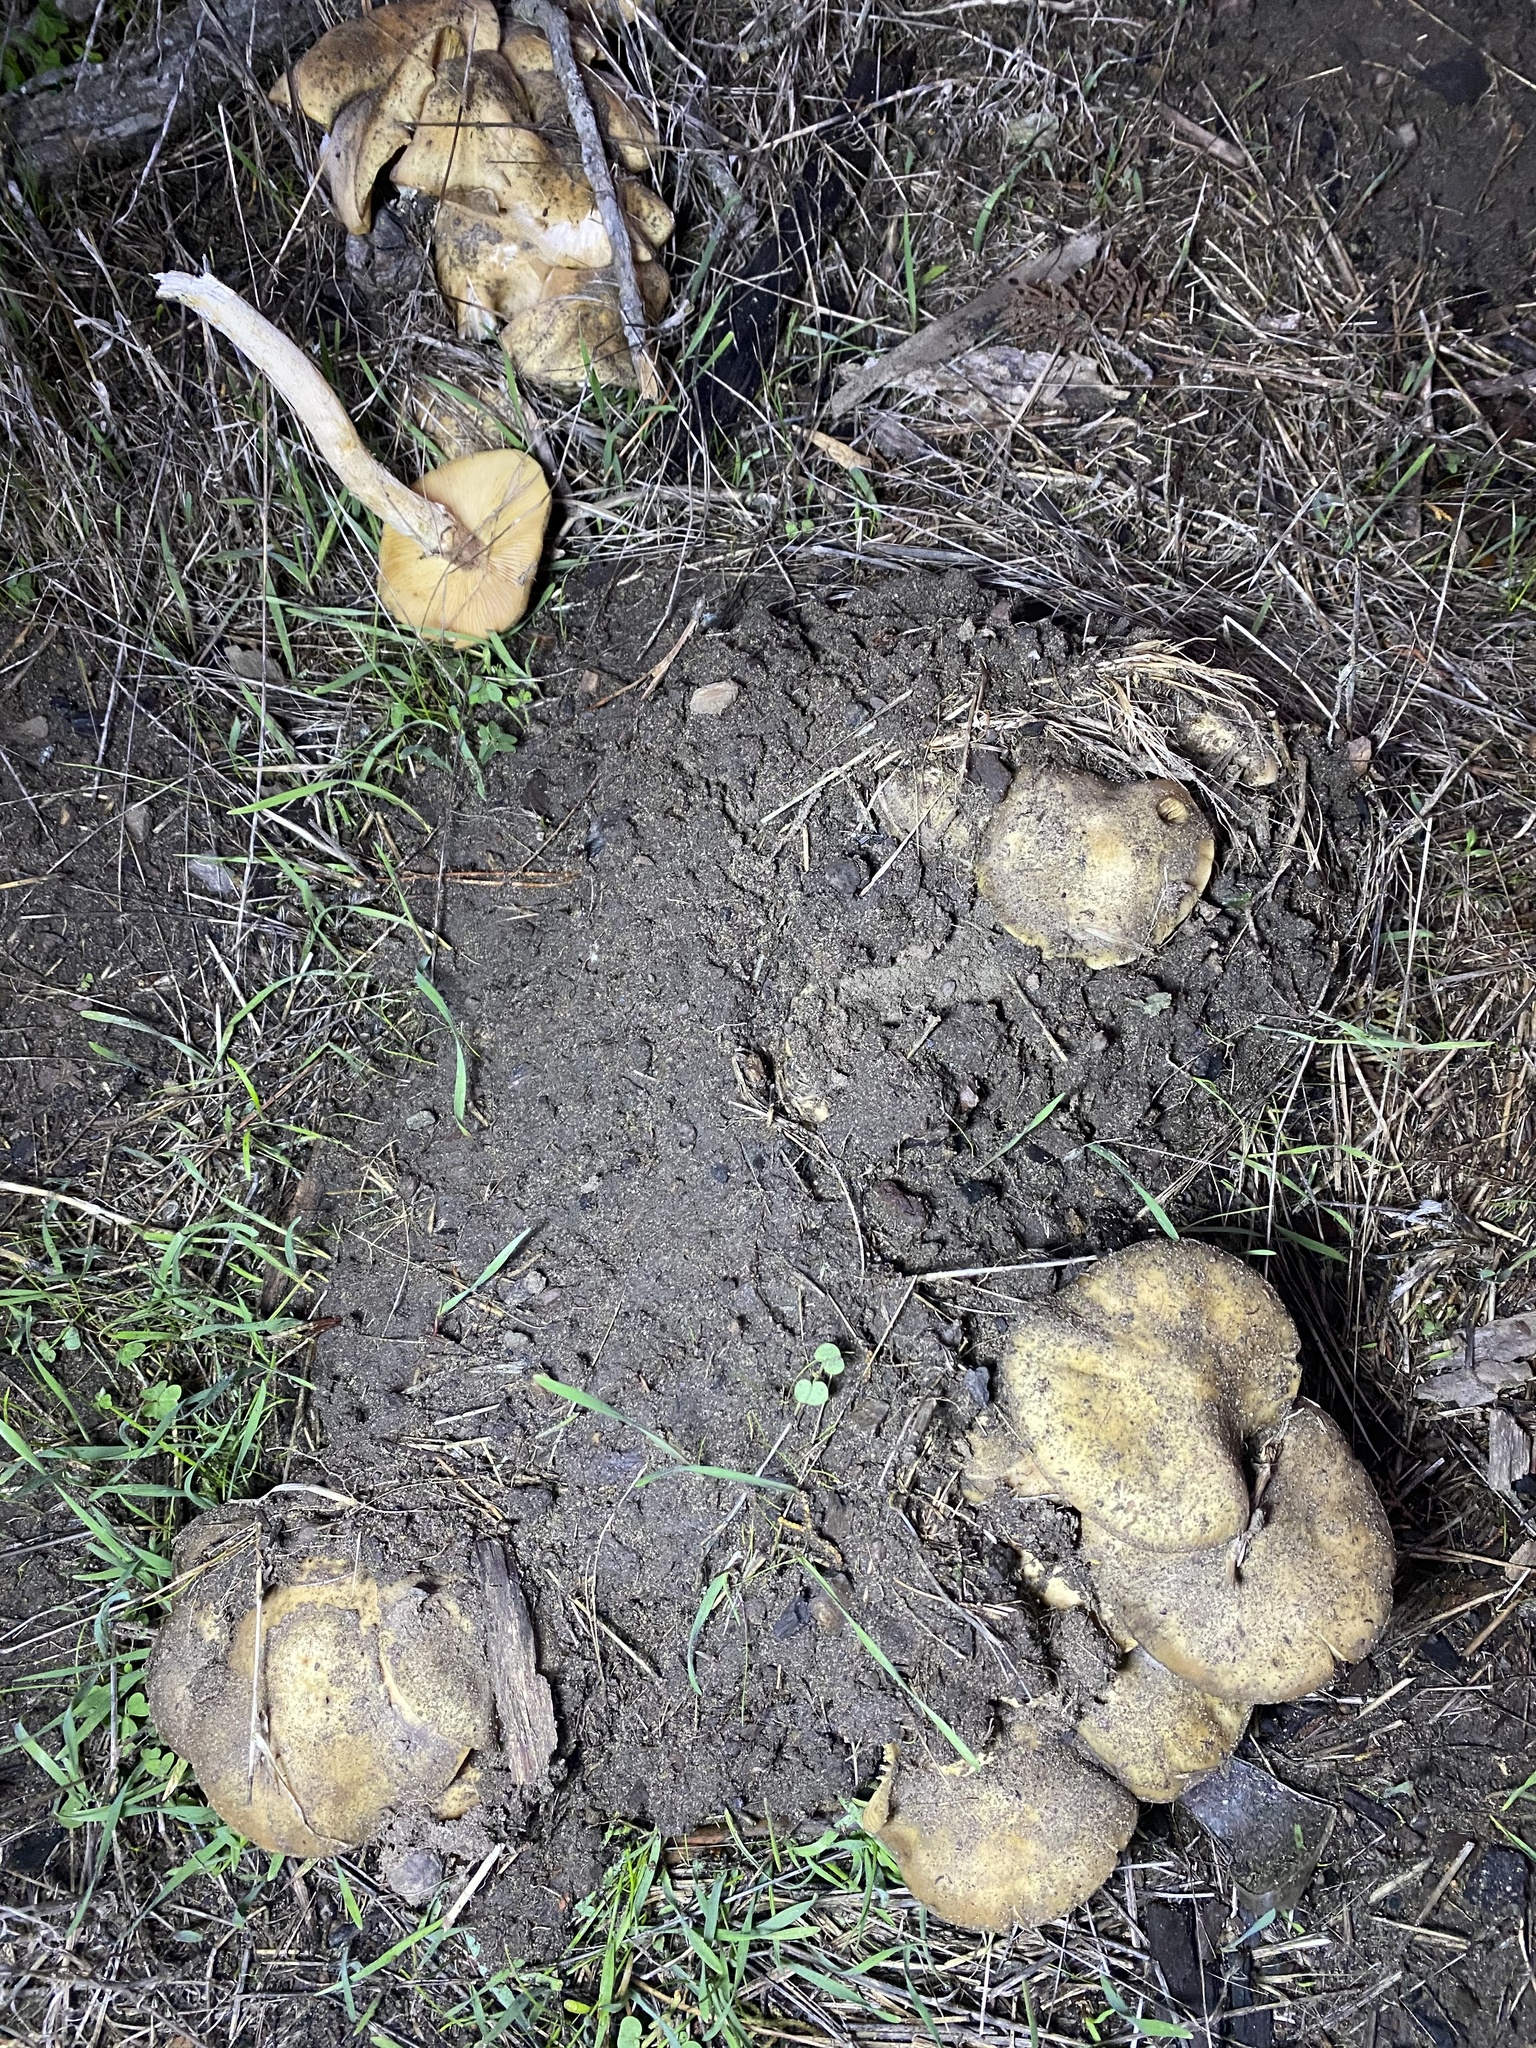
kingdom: Fungi
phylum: Basidiomycota
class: Agaricomycetes
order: Agaricales
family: Physalacriaceae
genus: Armillaria
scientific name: Armillaria mellea
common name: Honey fungus
